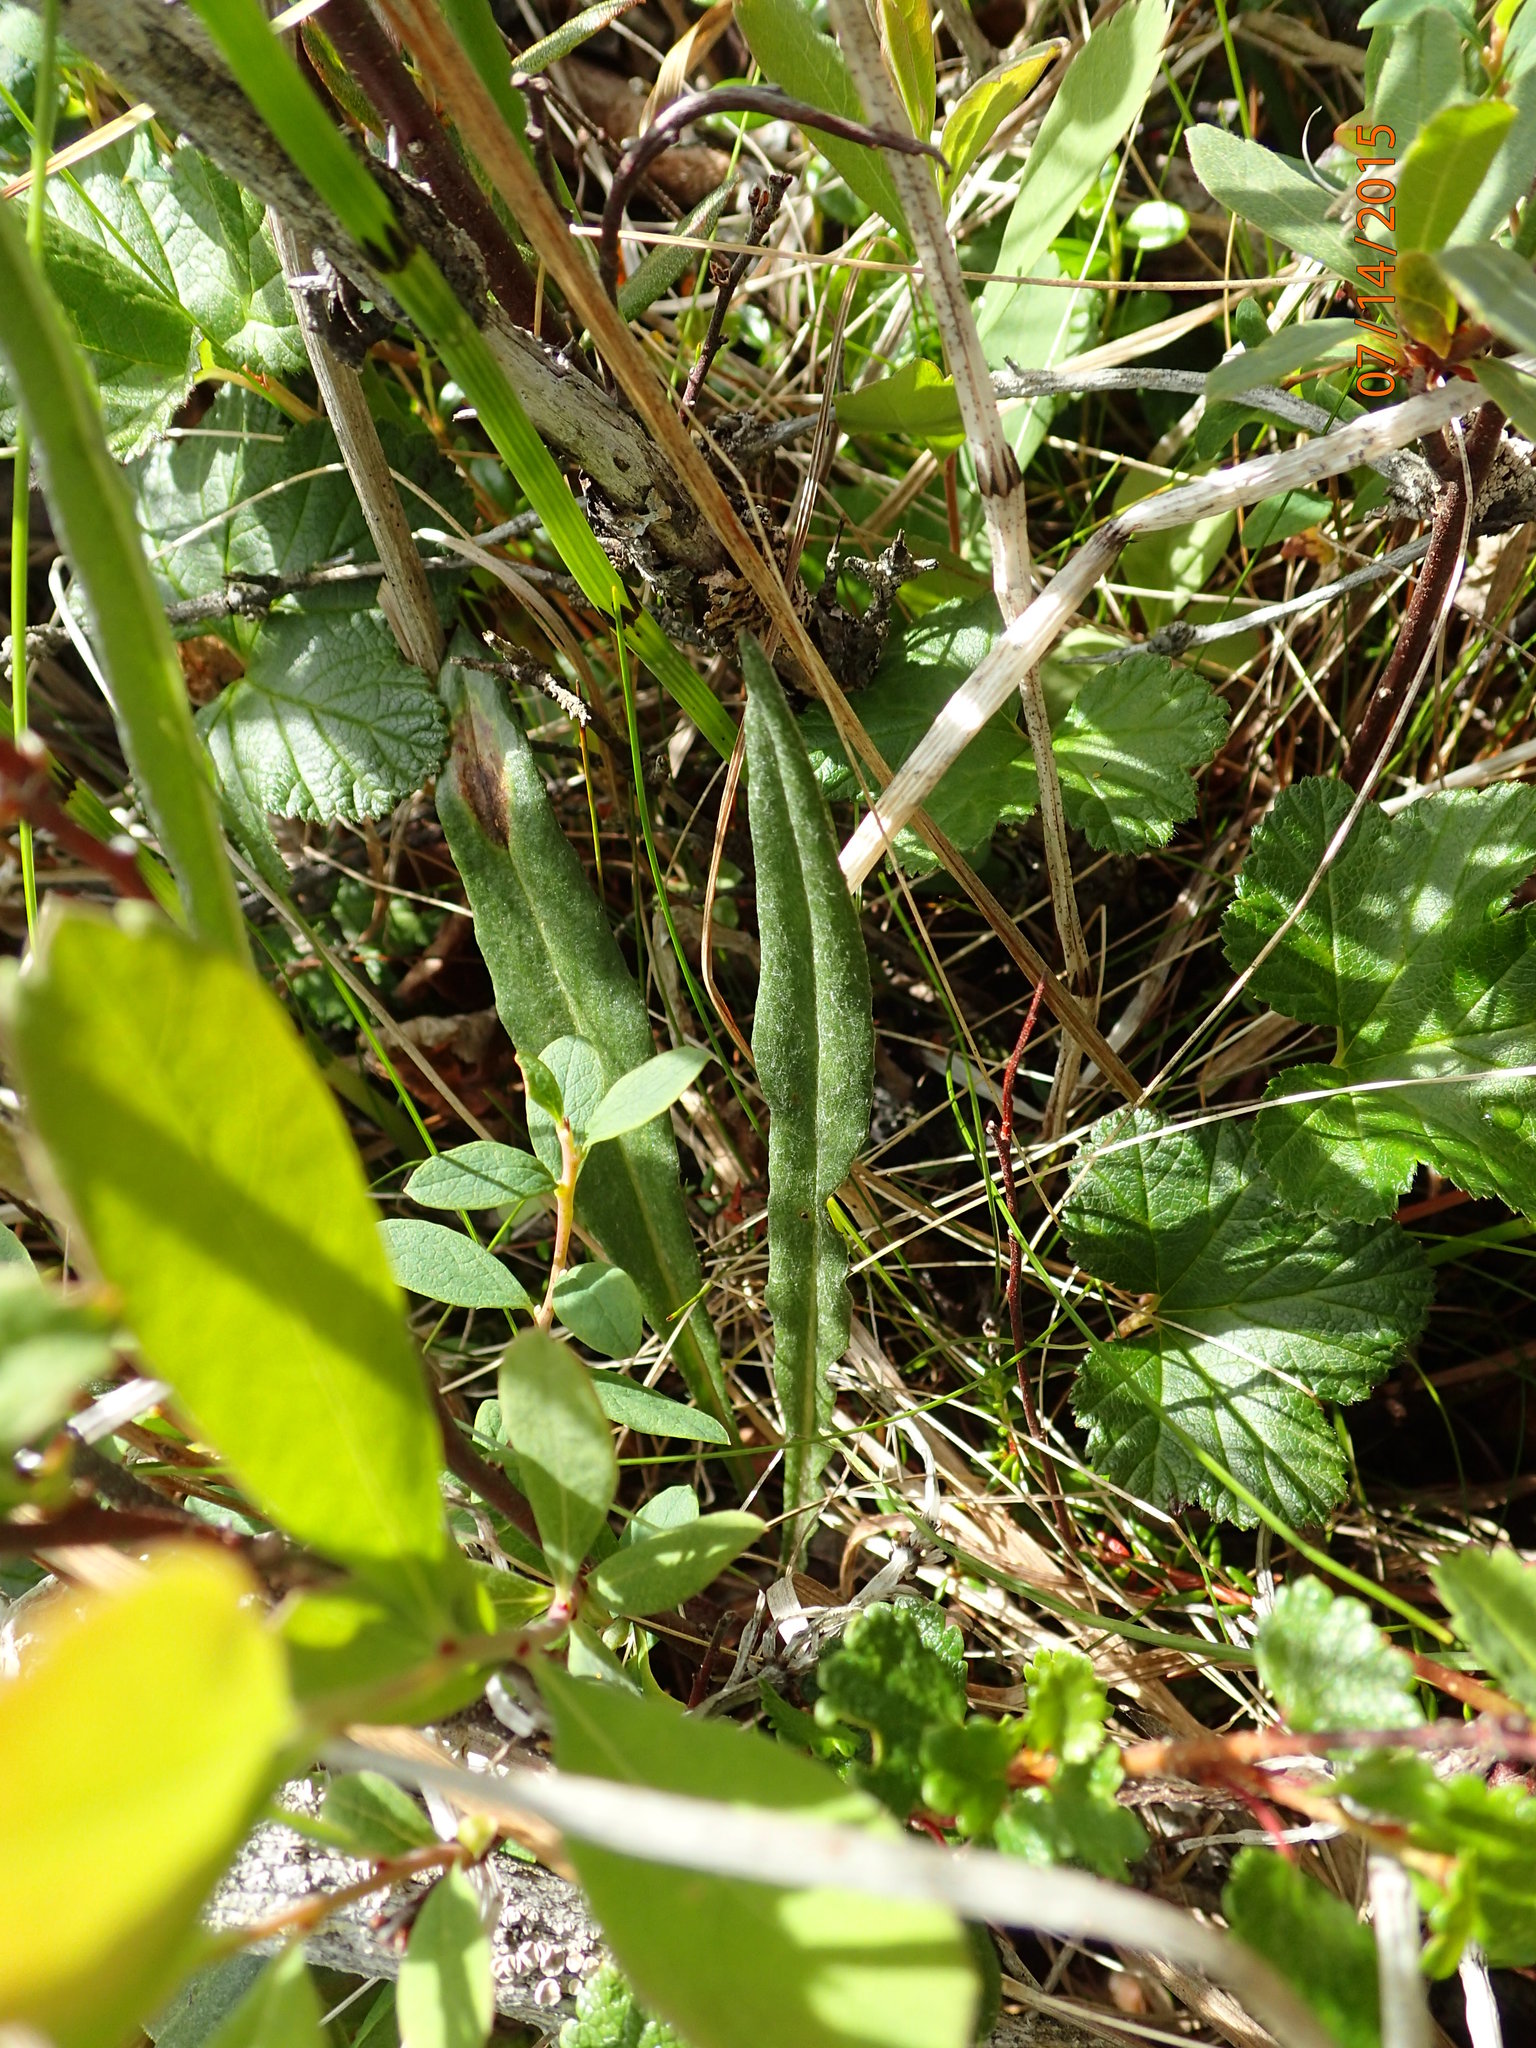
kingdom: Plantae
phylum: Tracheophyta
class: Magnoliopsida
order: Asterales
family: Asteraceae
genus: Senecio
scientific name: Senecio lugens
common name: Black-tip groundsel
